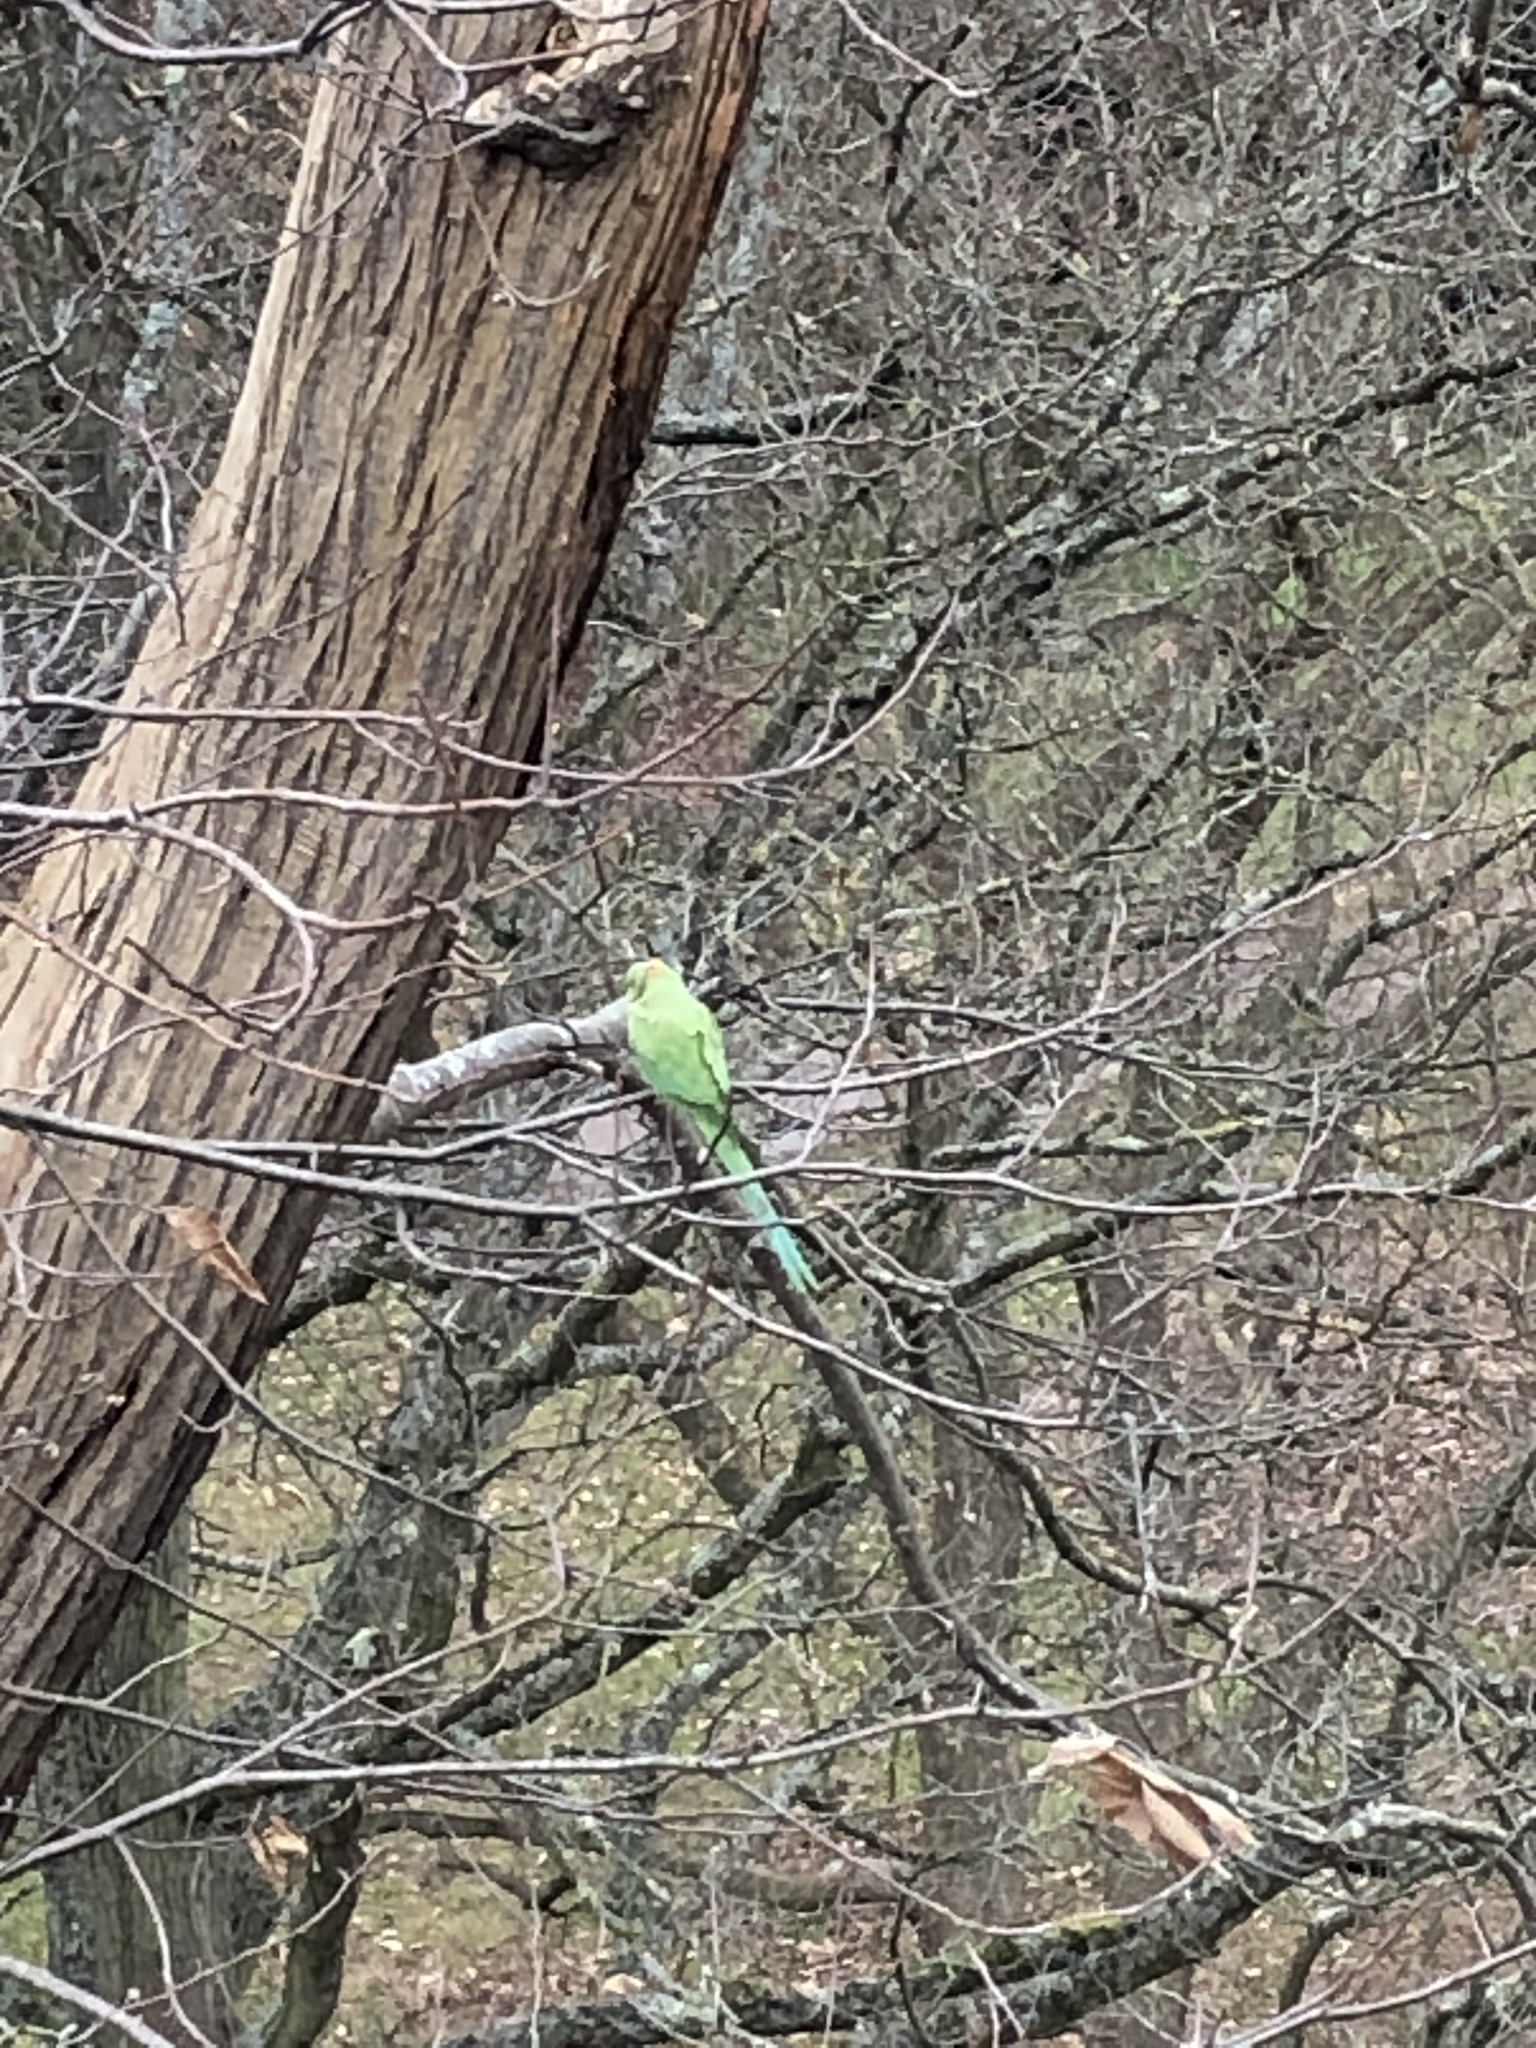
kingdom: Animalia
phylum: Chordata
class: Aves
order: Psittaciformes
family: Psittacidae
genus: Psittacula
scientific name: Psittacula krameri
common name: Rose-ringed parakeet
